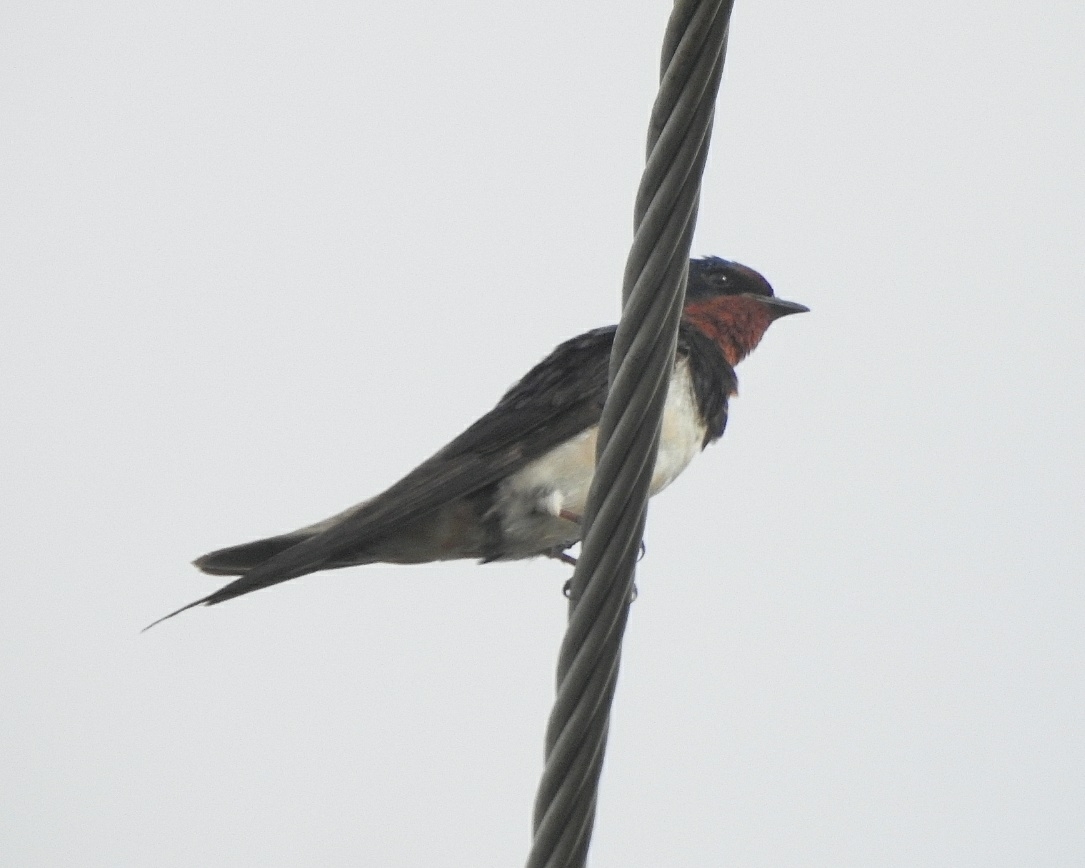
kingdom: Animalia
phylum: Chordata
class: Aves
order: Passeriformes
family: Hirundinidae
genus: Hirundo
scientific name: Hirundo rustica
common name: Barn swallow
